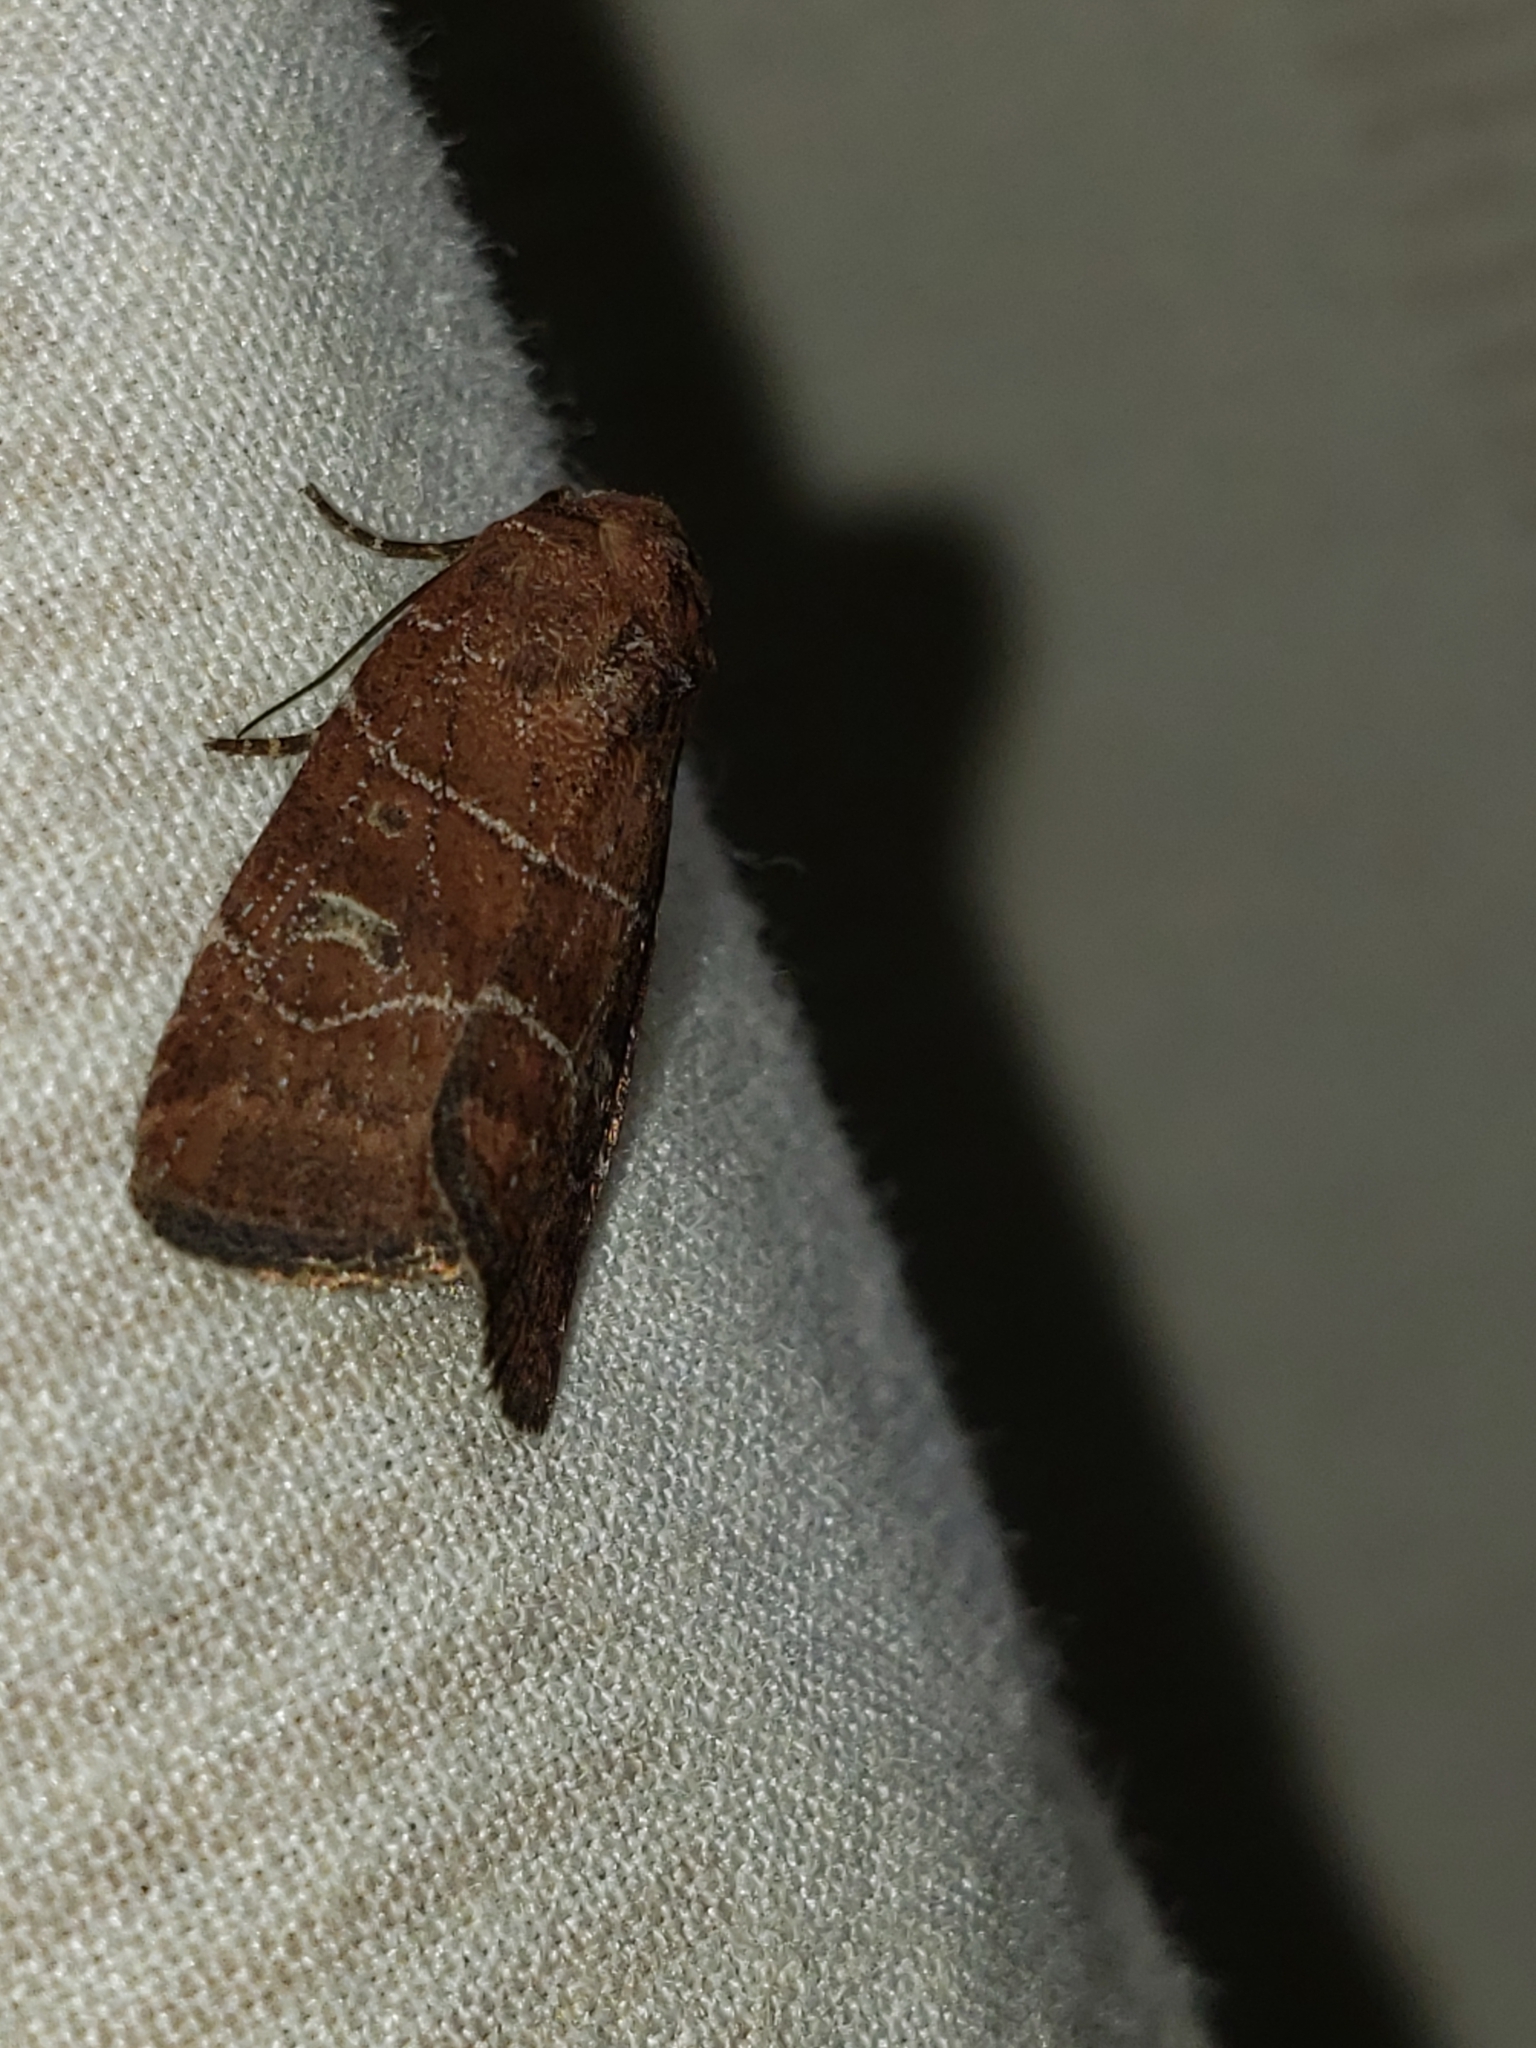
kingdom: Animalia
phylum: Arthropoda
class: Insecta
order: Lepidoptera
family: Noctuidae
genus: Elaphria
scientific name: Elaphria grata
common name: Grateful midget moth
